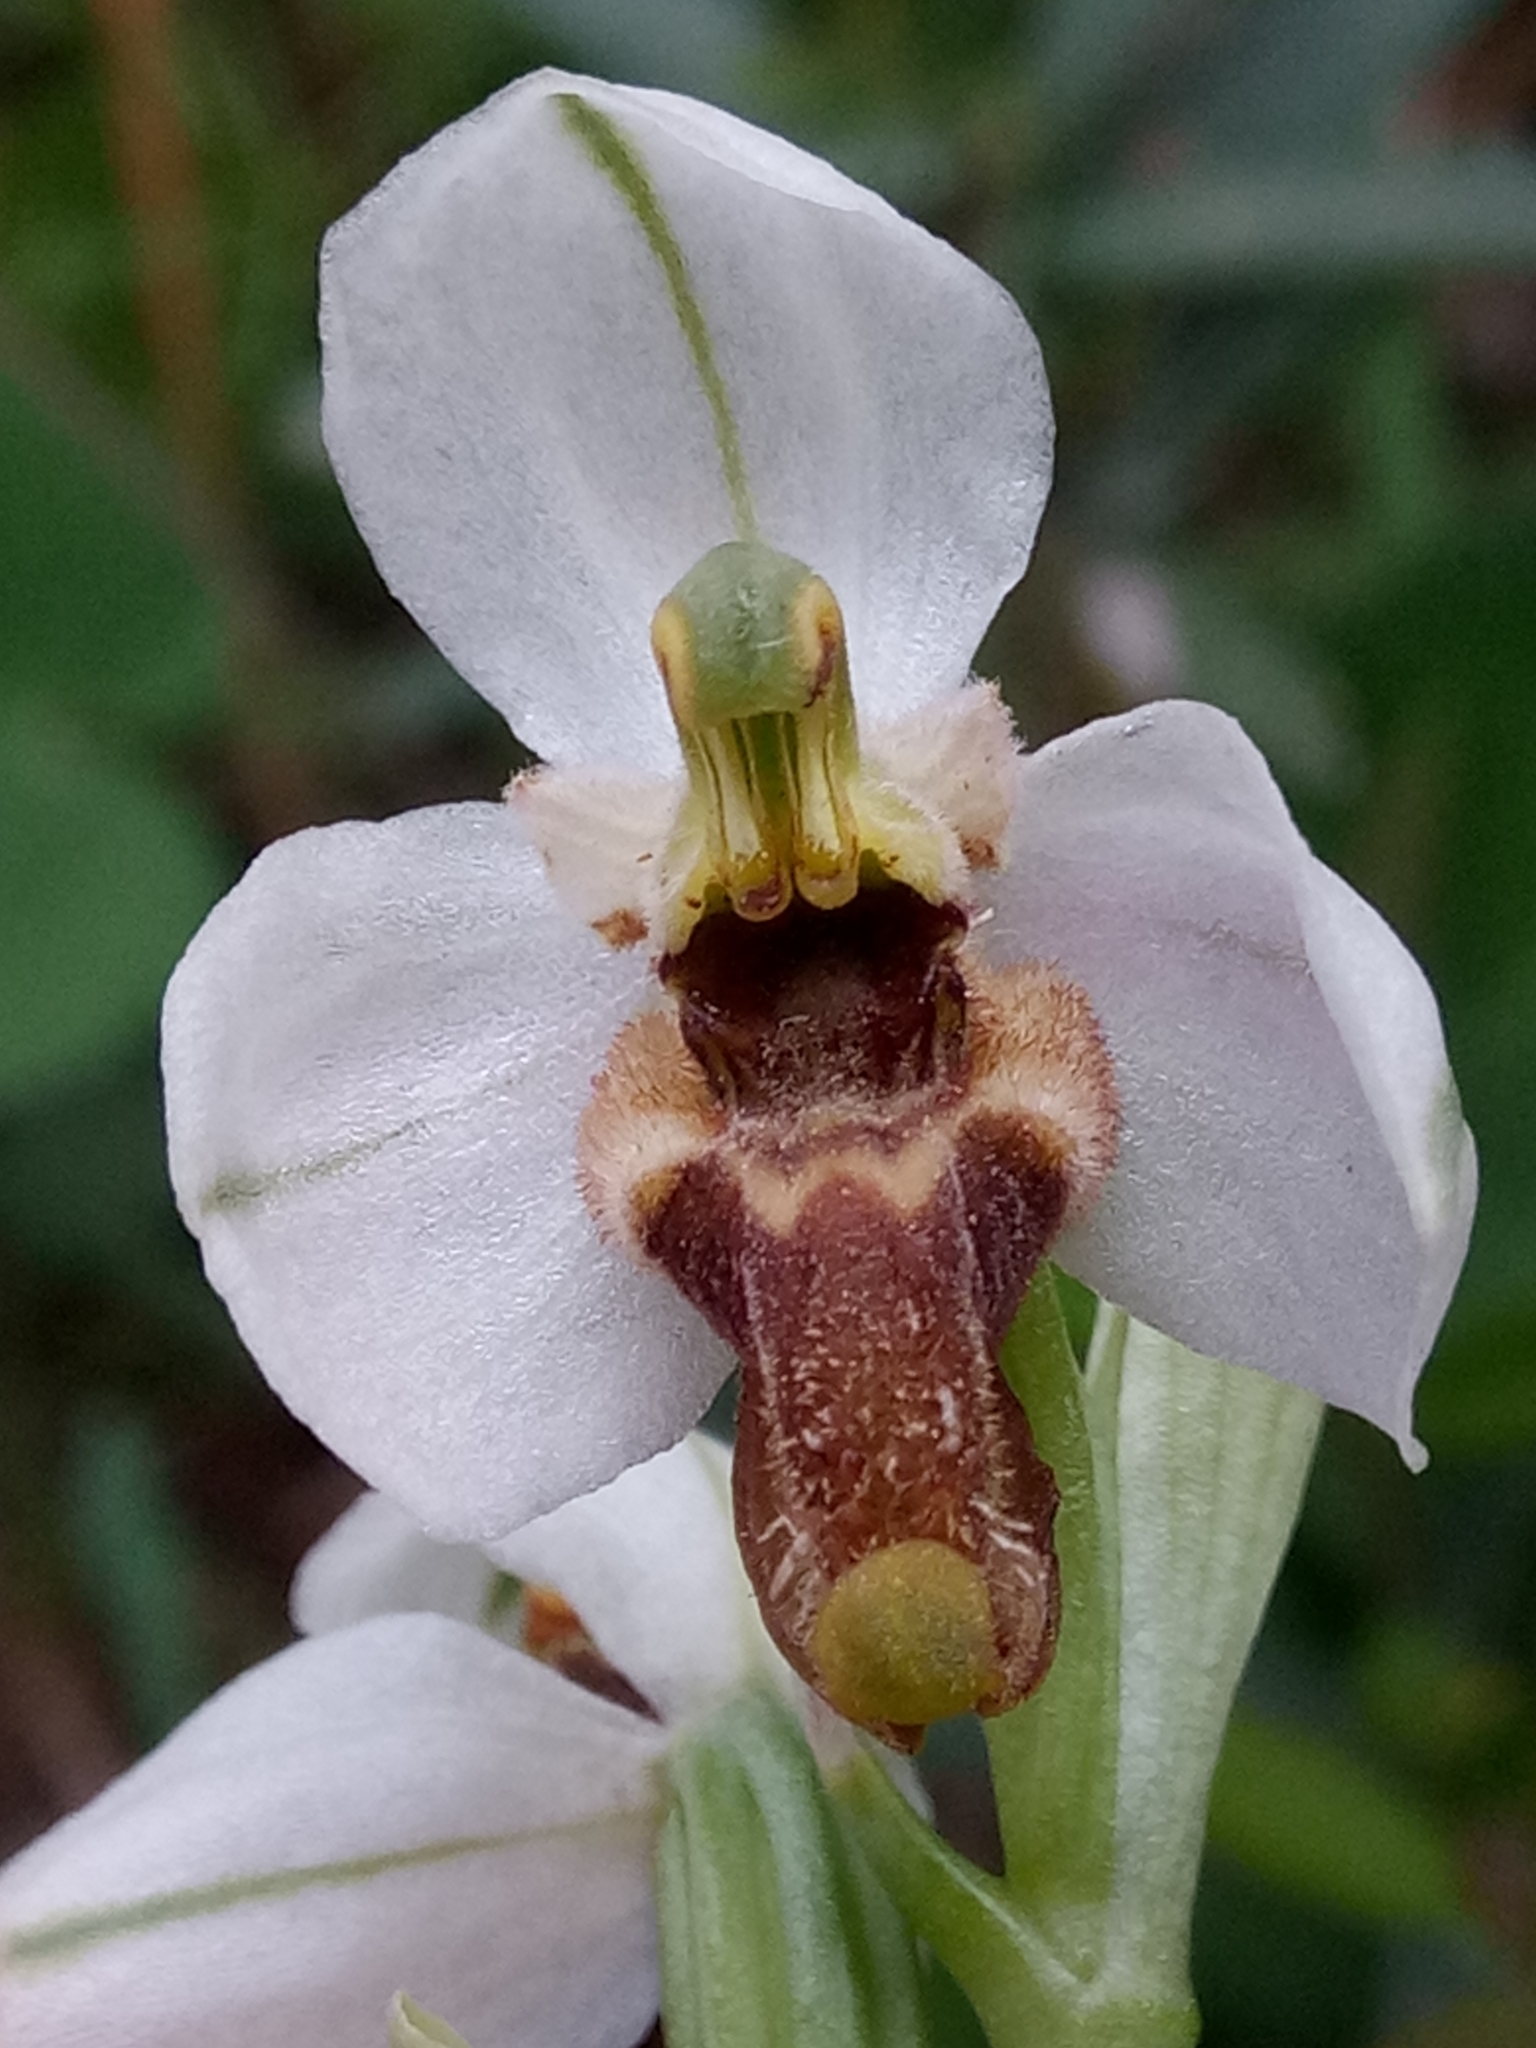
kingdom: Plantae
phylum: Tracheophyta
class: Liliopsida
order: Asparagales
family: Orchidaceae
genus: Ophrys
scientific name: Ophrys tenthredinifera
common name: Sawfly orchid
